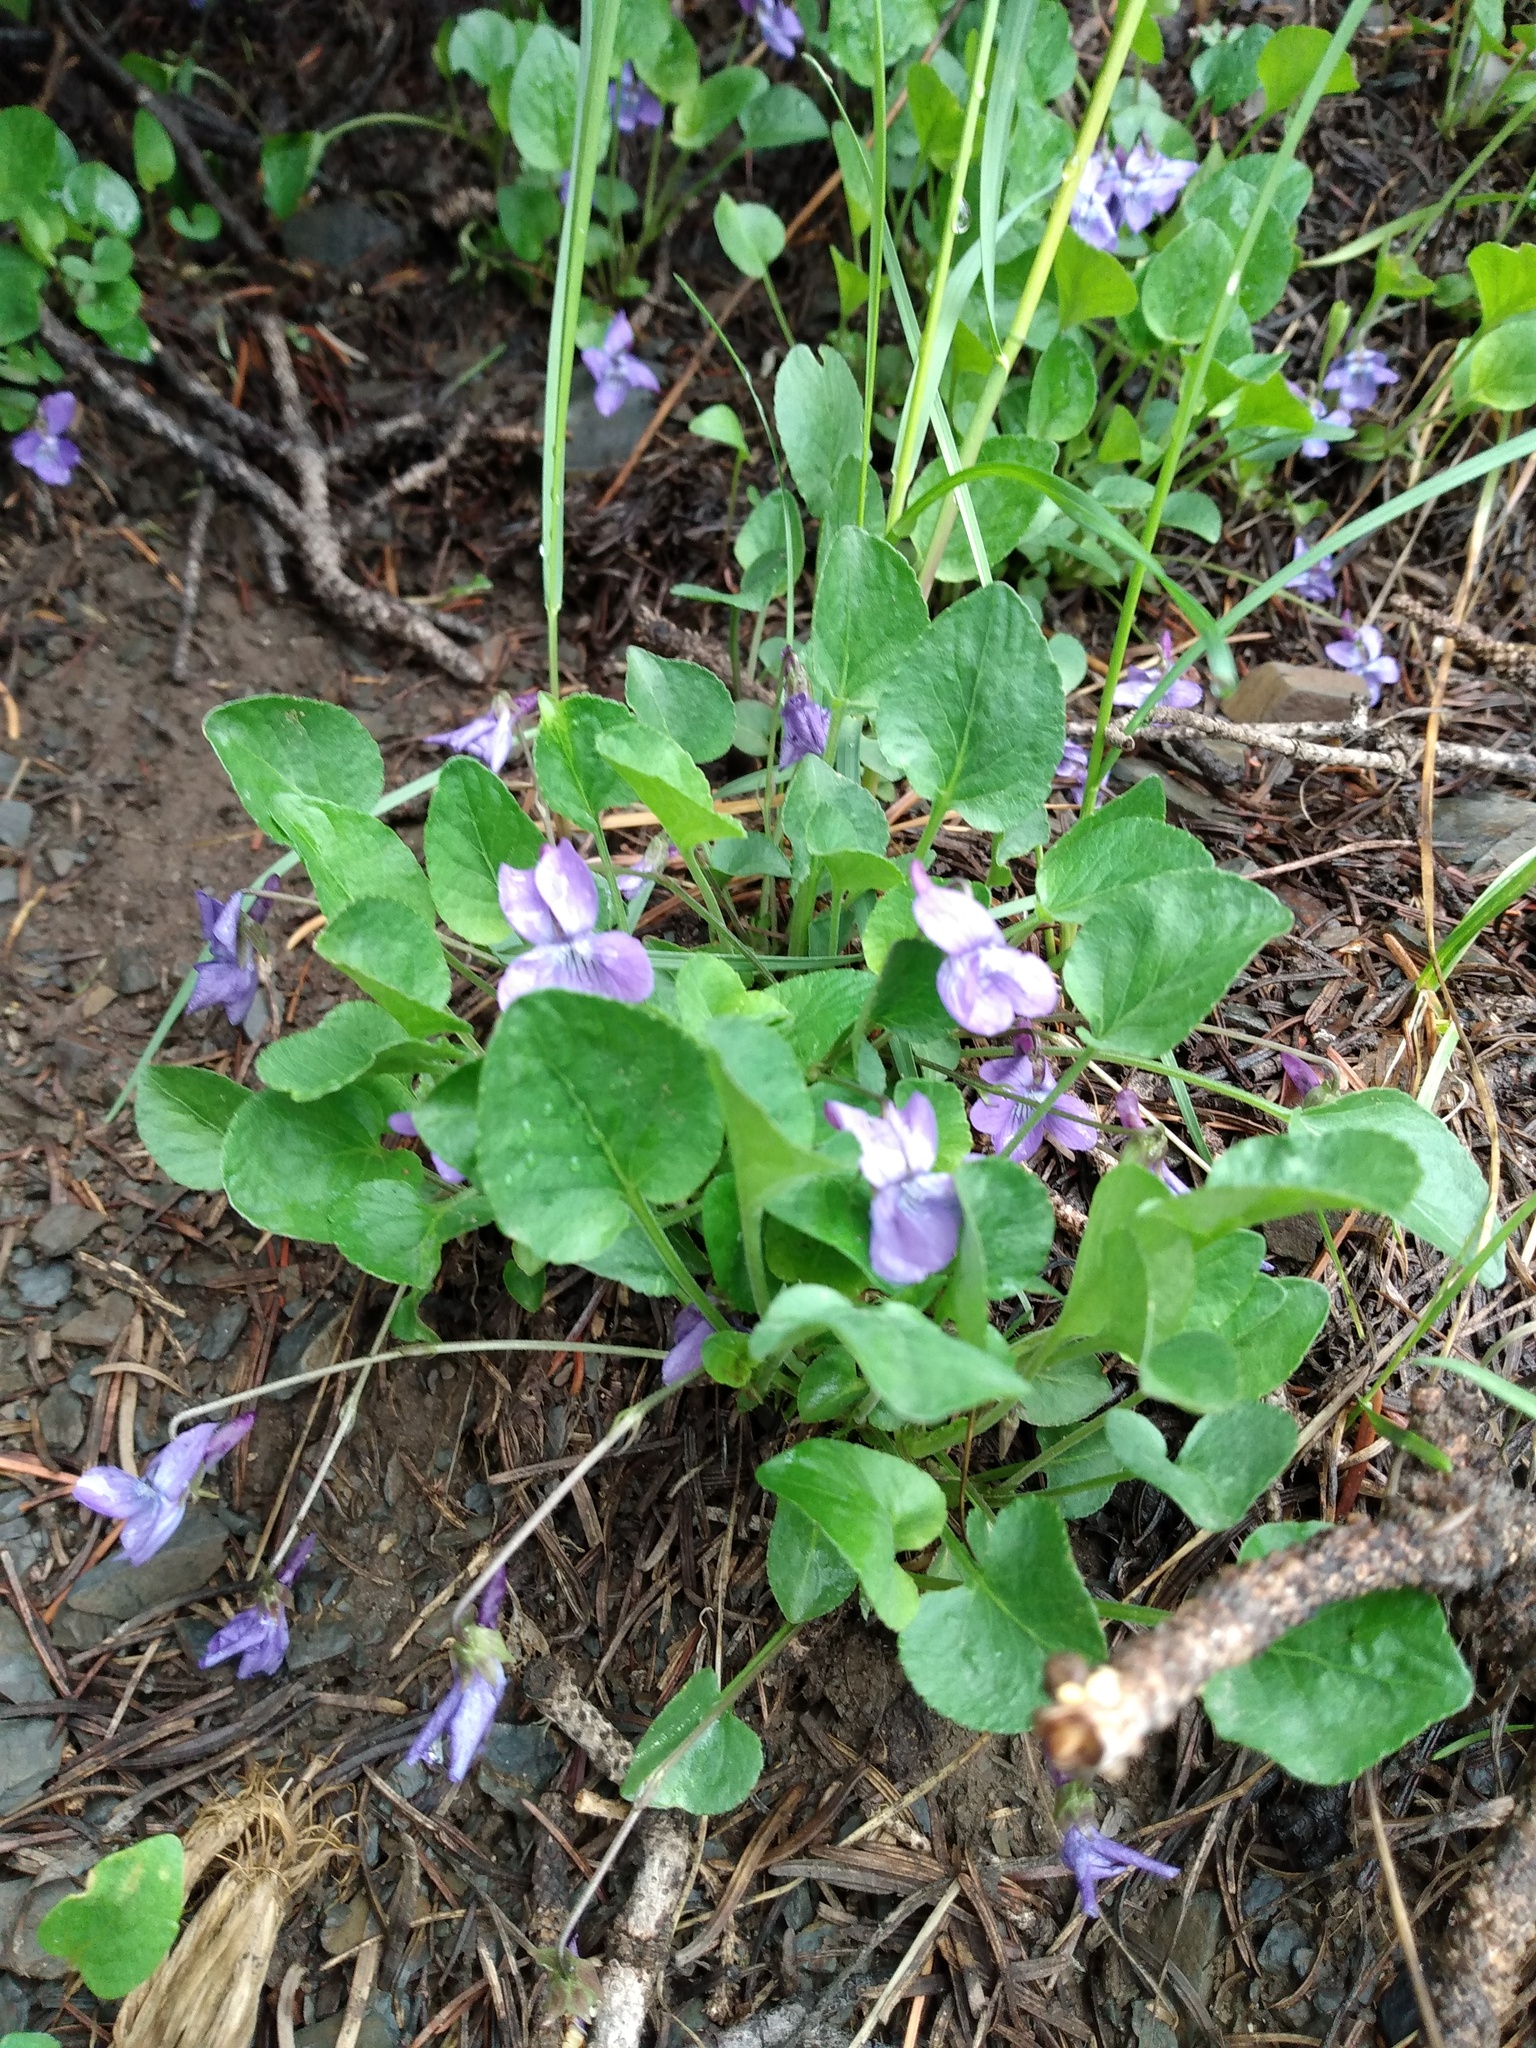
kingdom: Plantae
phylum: Tracheophyta
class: Magnoliopsida
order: Malpighiales
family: Violaceae
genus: Viola
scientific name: Viola adunca
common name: Sand violet
